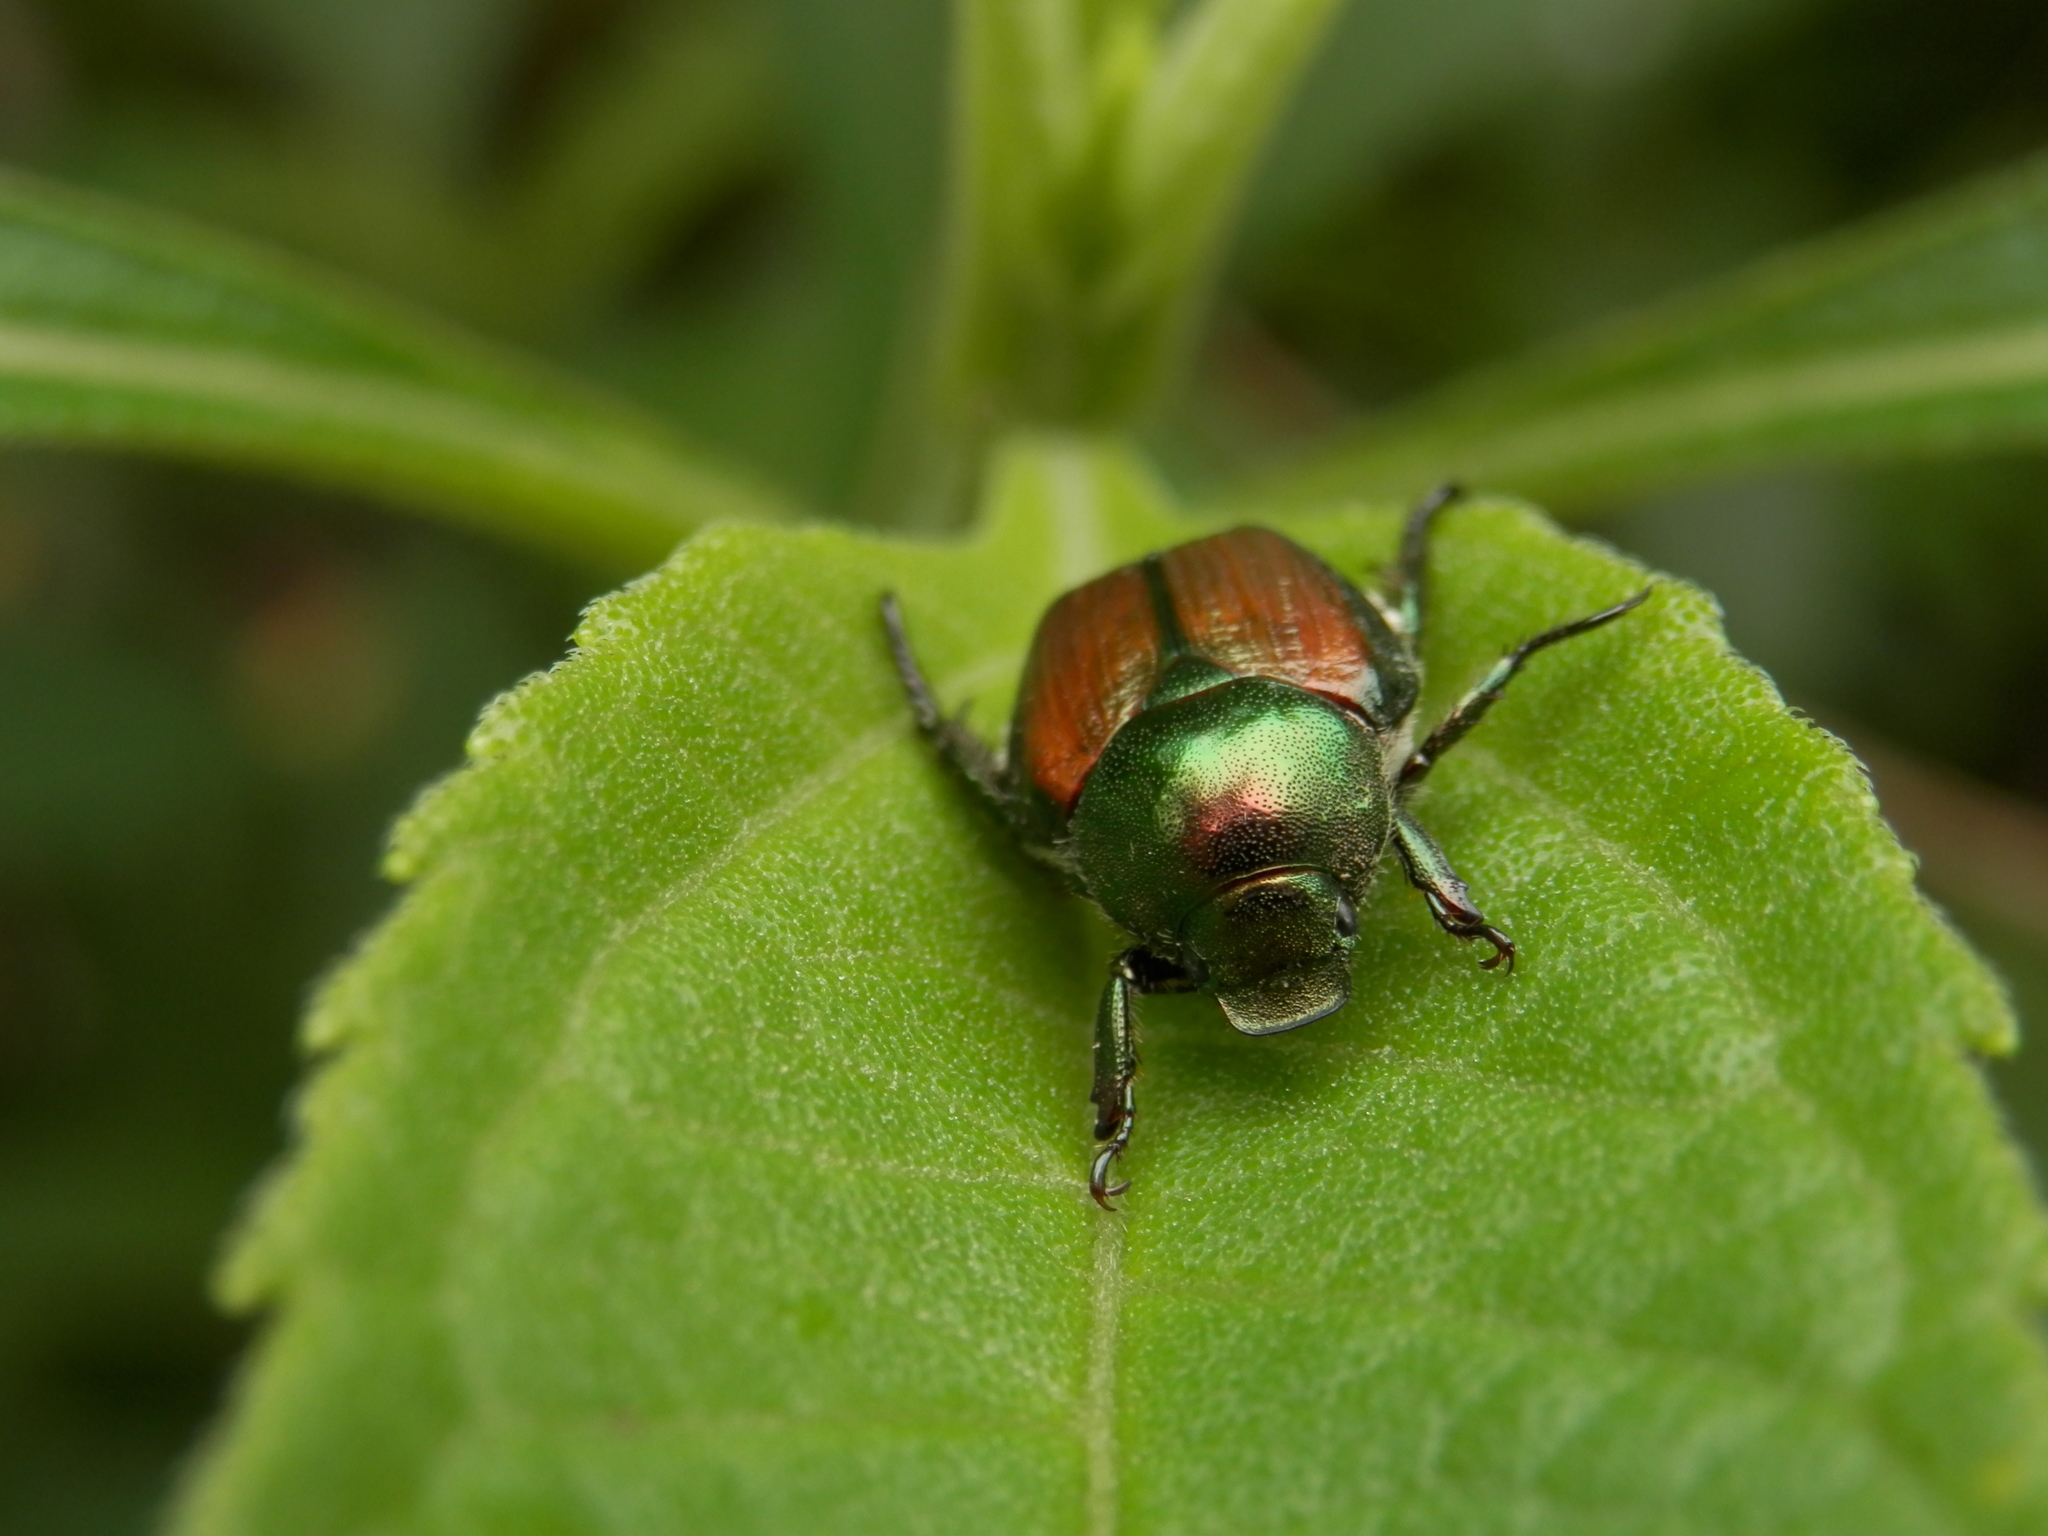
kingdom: Animalia
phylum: Arthropoda
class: Insecta
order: Coleoptera
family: Scarabaeidae
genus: Popillia
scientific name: Popillia japonica
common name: Japanese beetle
